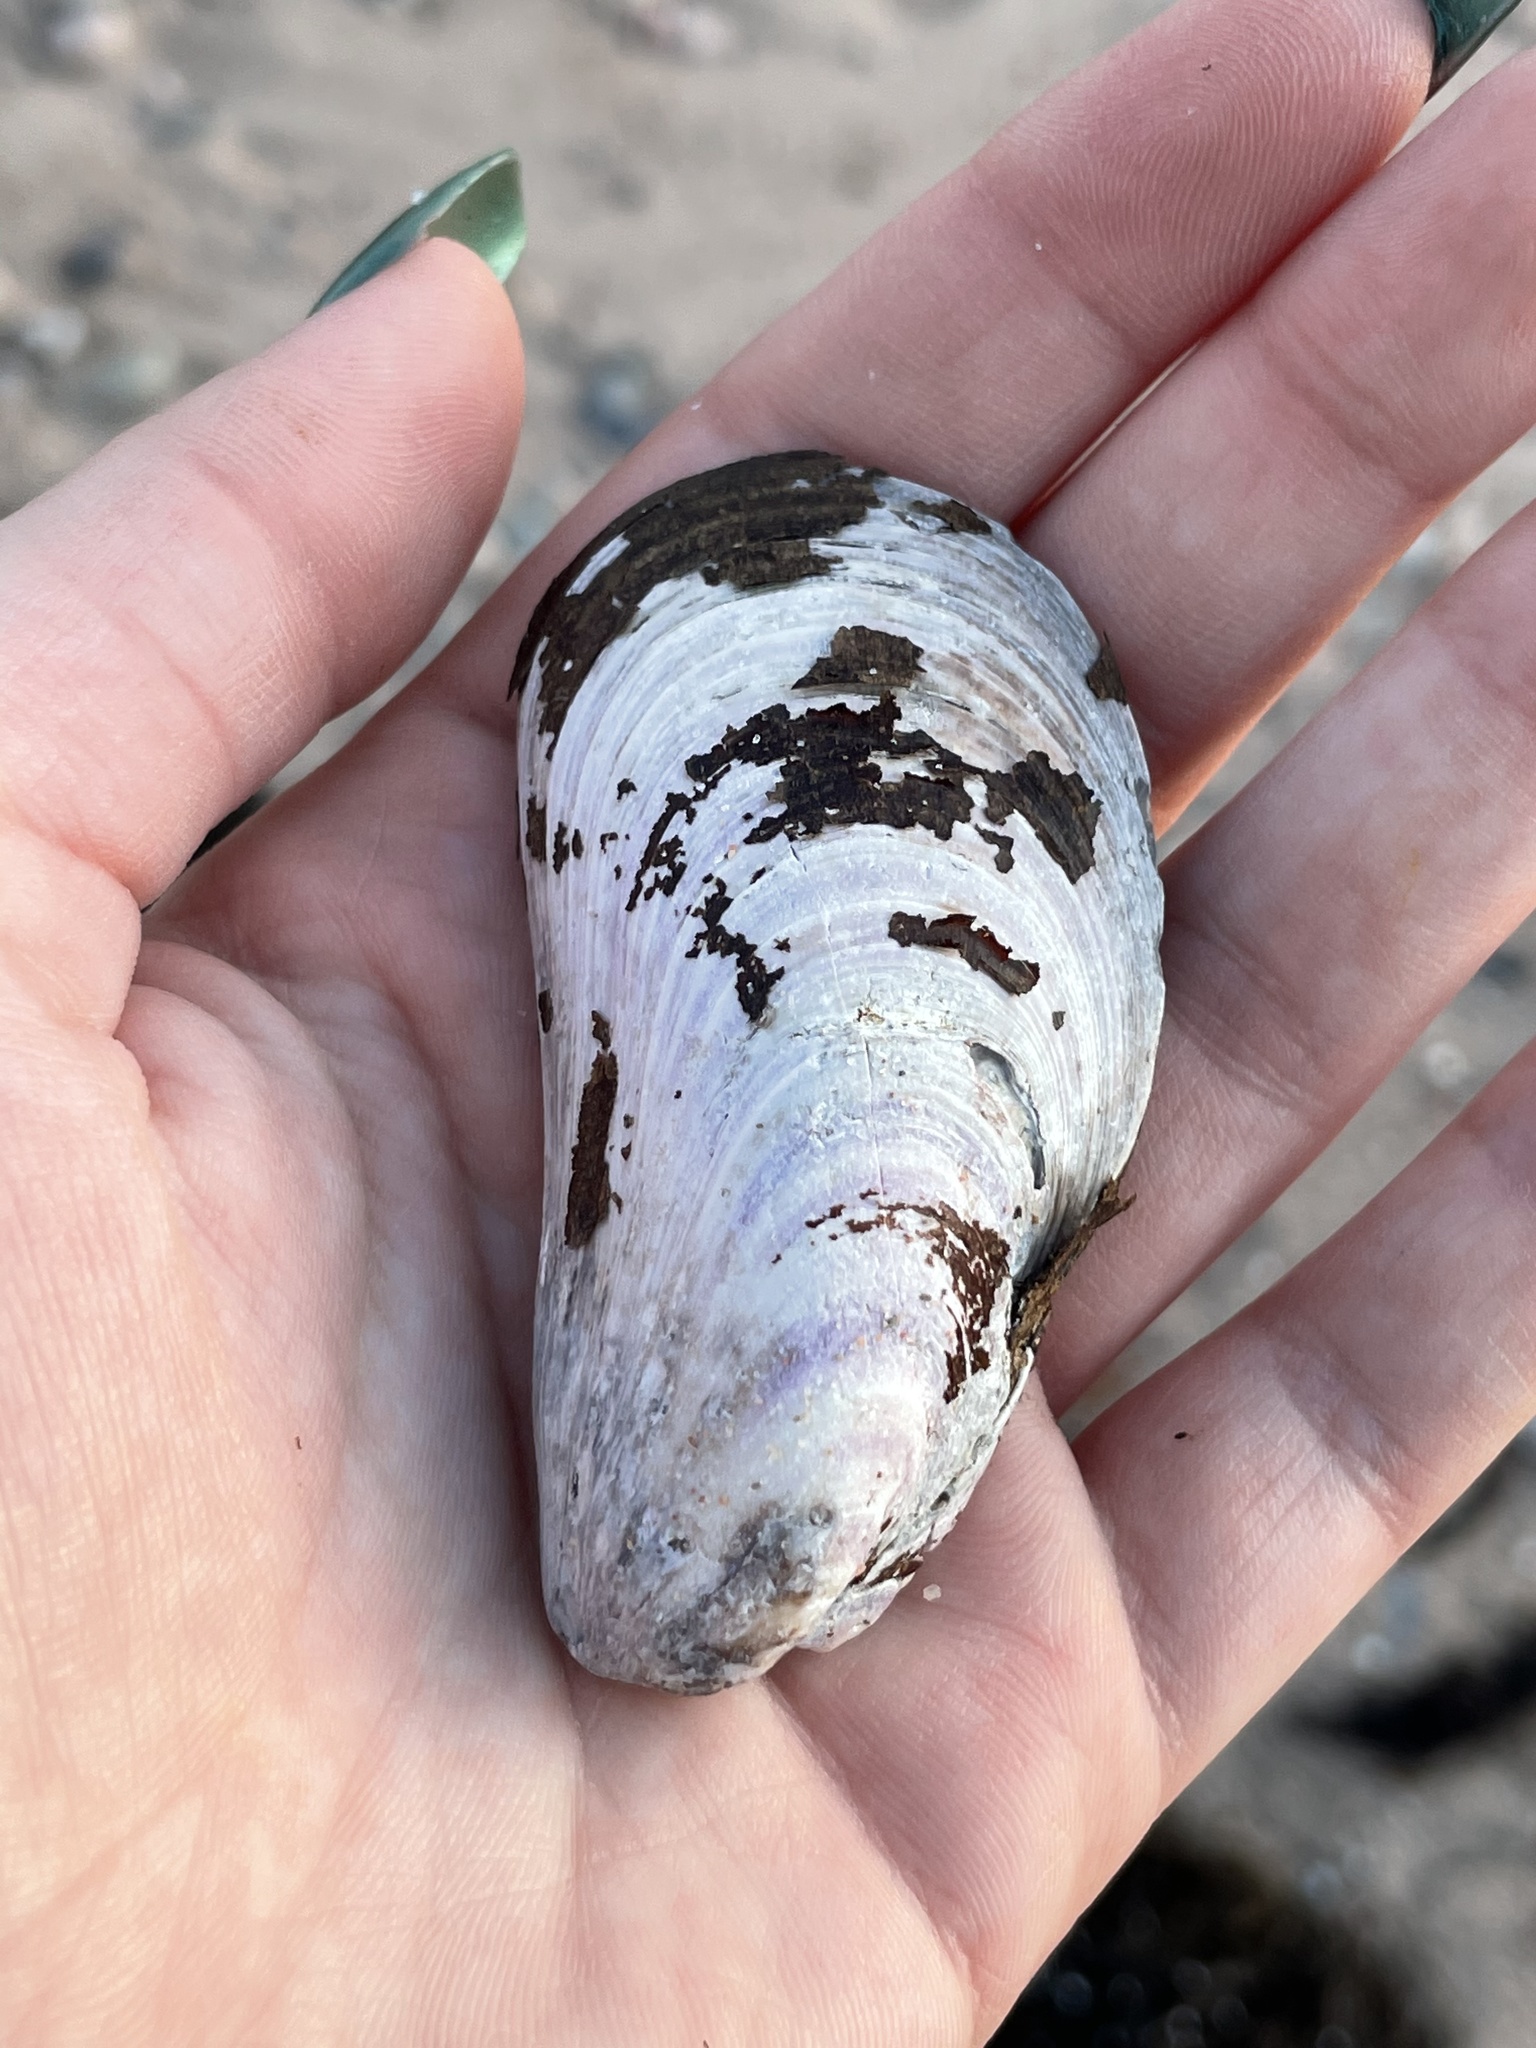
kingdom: Animalia
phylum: Mollusca
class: Bivalvia
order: Mytilida
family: Mytilidae
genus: Modiolus
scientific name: Modiolus modiolus
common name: Horse-mussel
